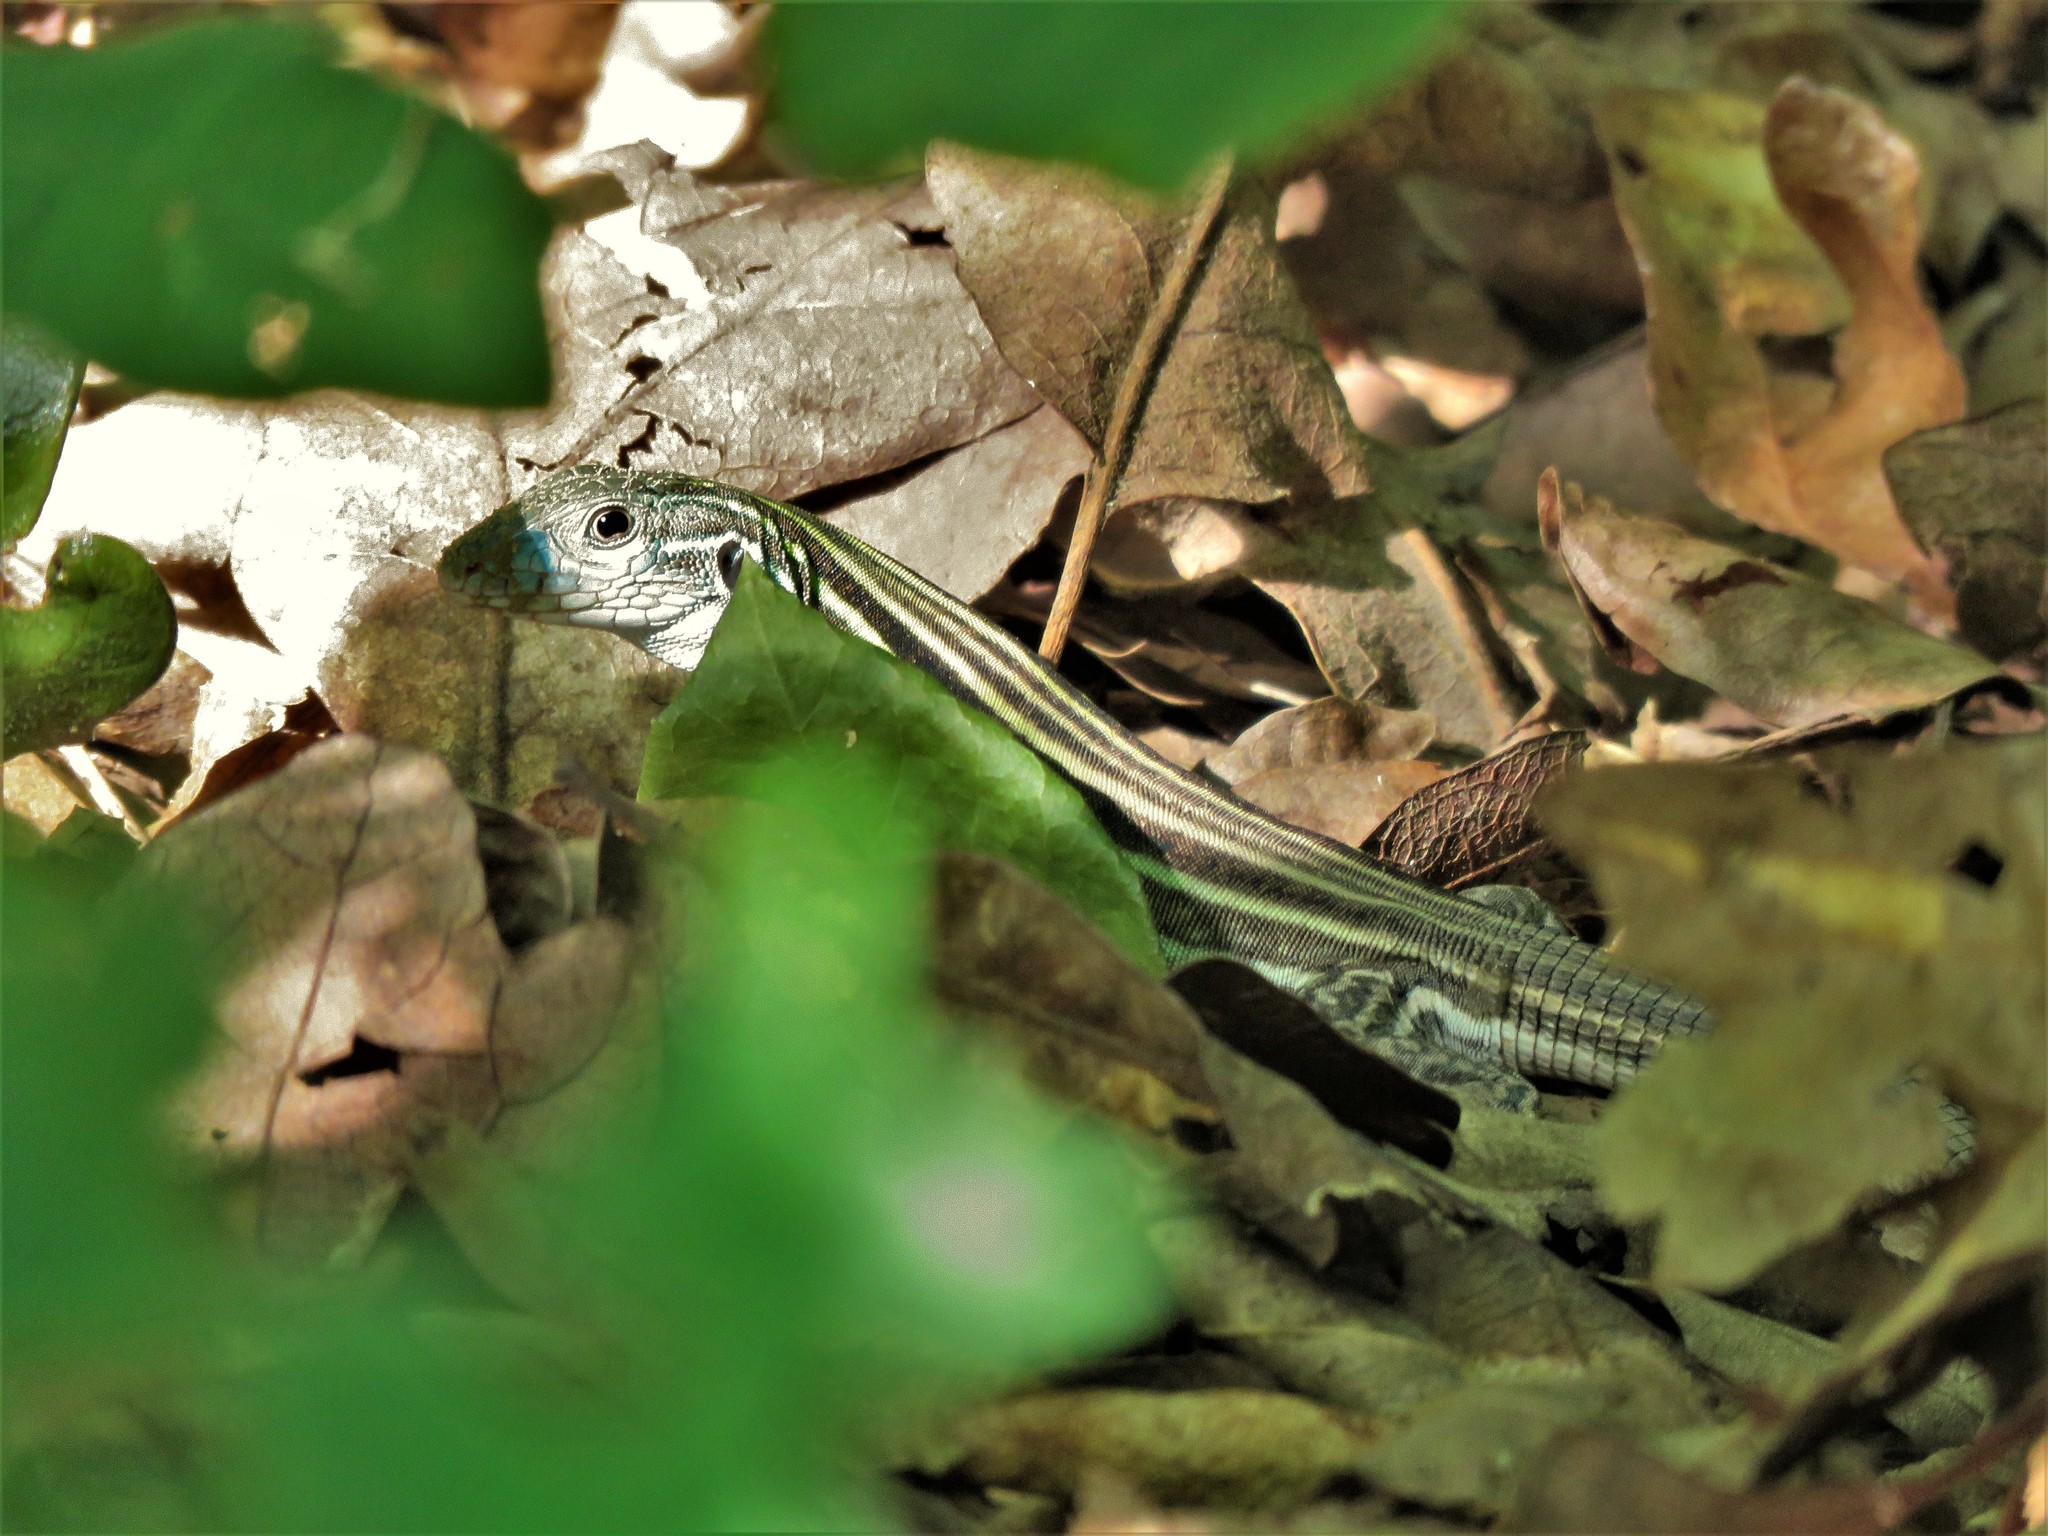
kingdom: Animalia
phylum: Chordata
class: Squamata
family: Teiidae
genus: Aspidoscelis
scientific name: Aspidoscelis gularis
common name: Eastern spotted whiptail
